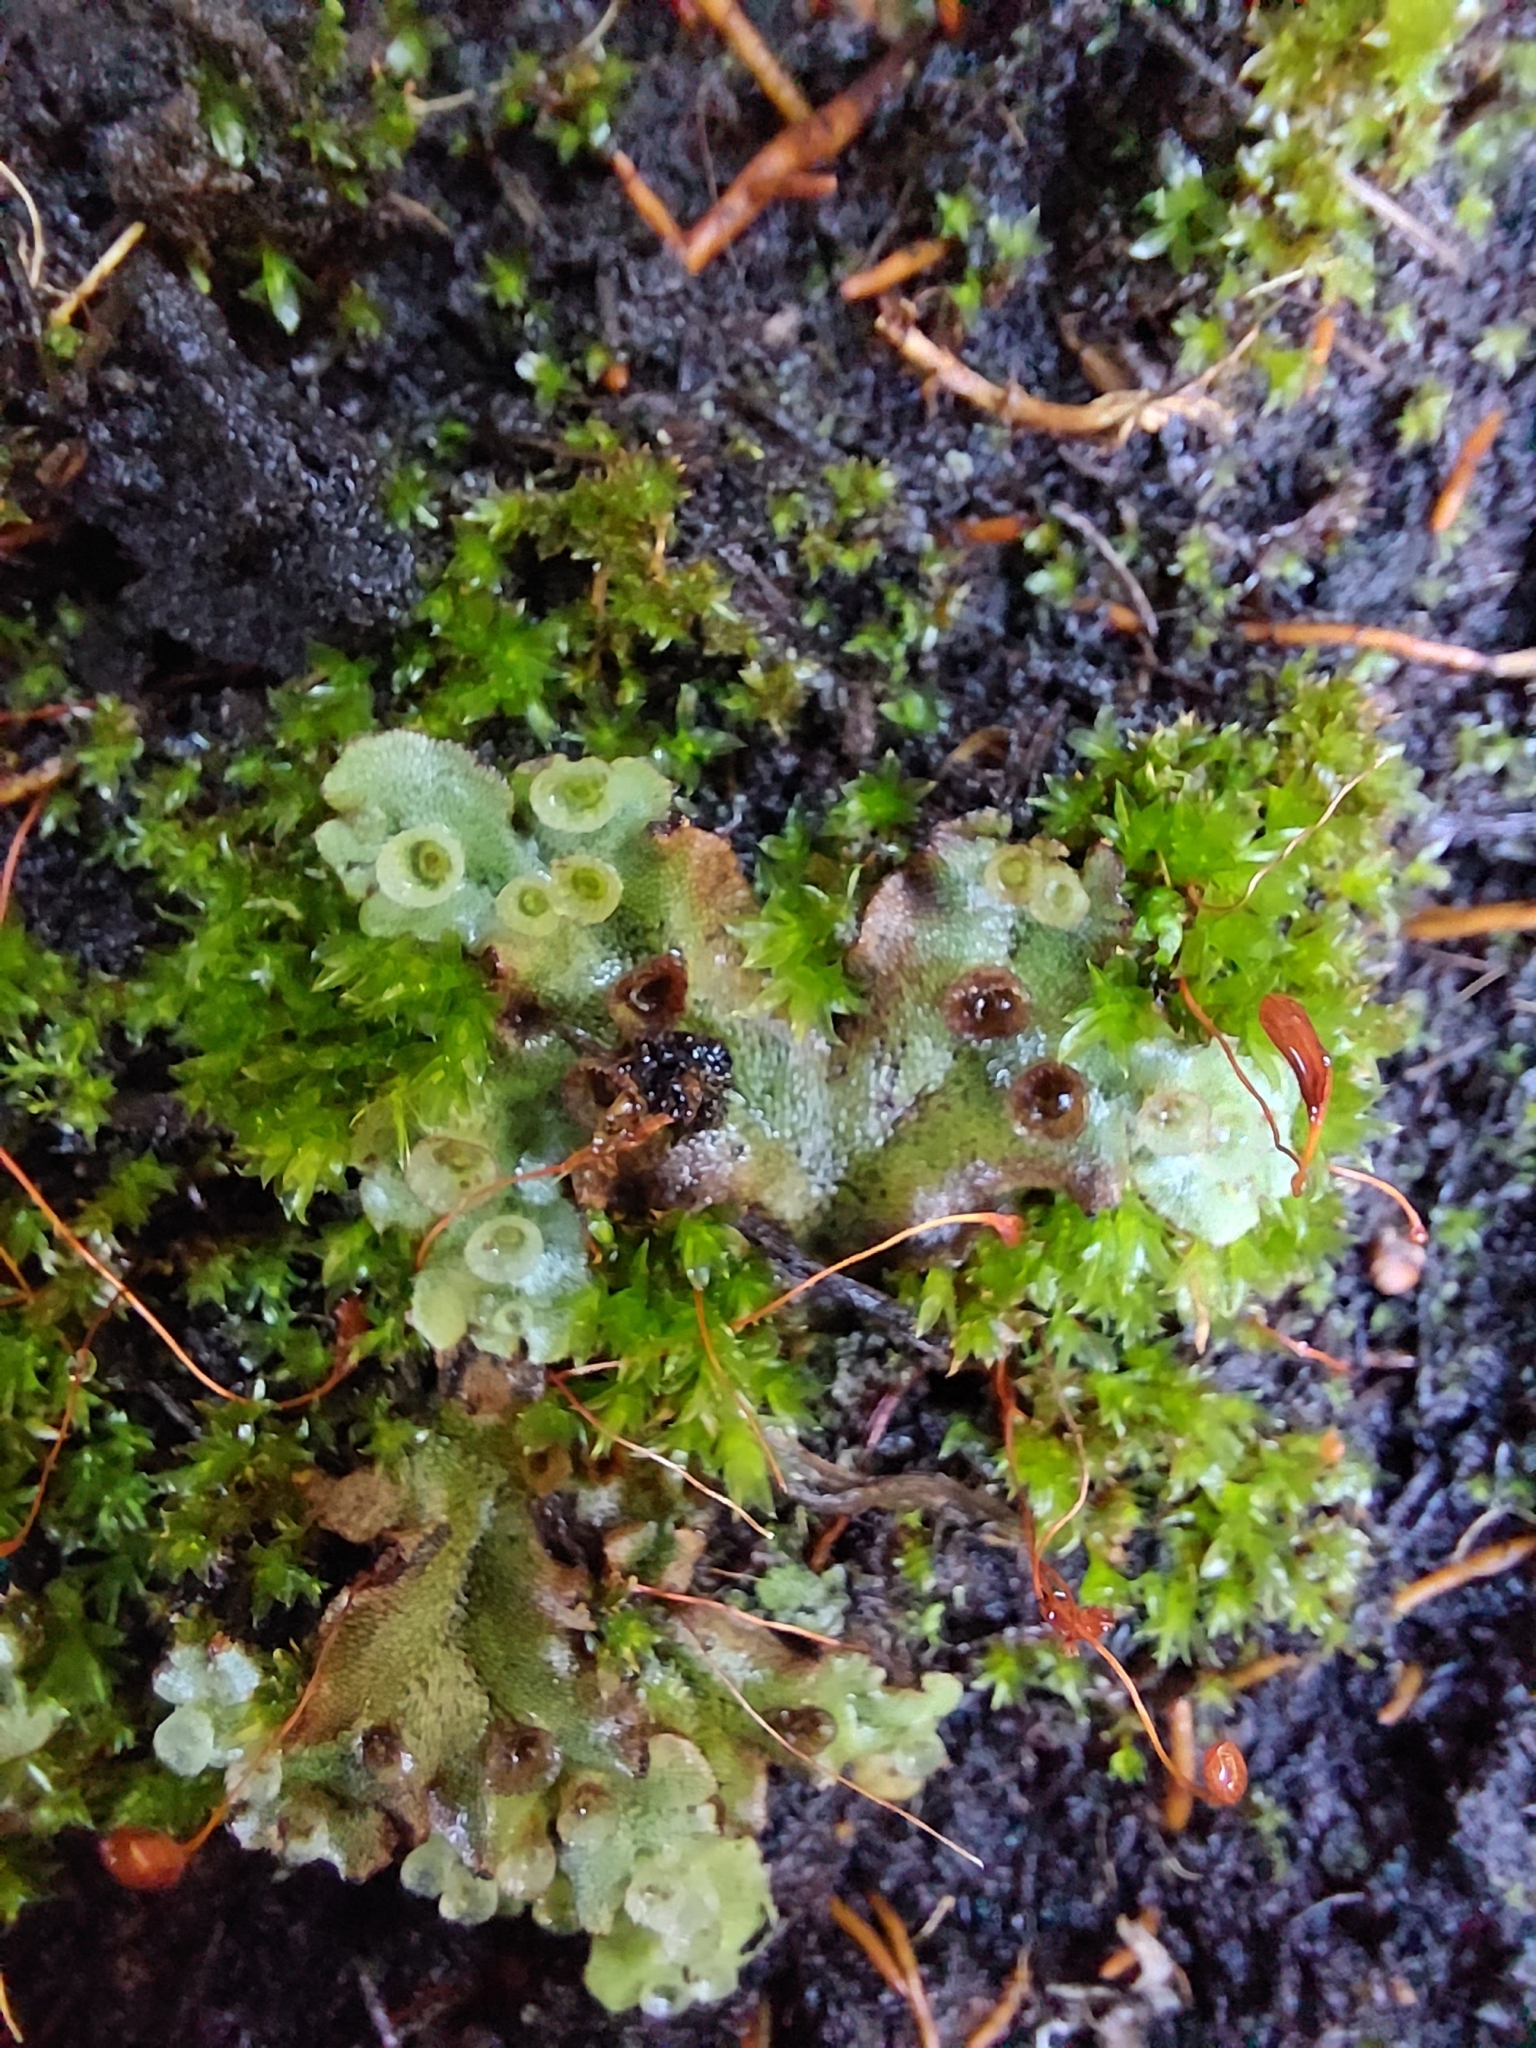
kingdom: Plantae
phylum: Marchantiophyta
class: Marchantiopsida
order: Marchantiales
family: Marchantiaceae
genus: Marchantia
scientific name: Marchantia polymorpha
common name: Common liverwort
